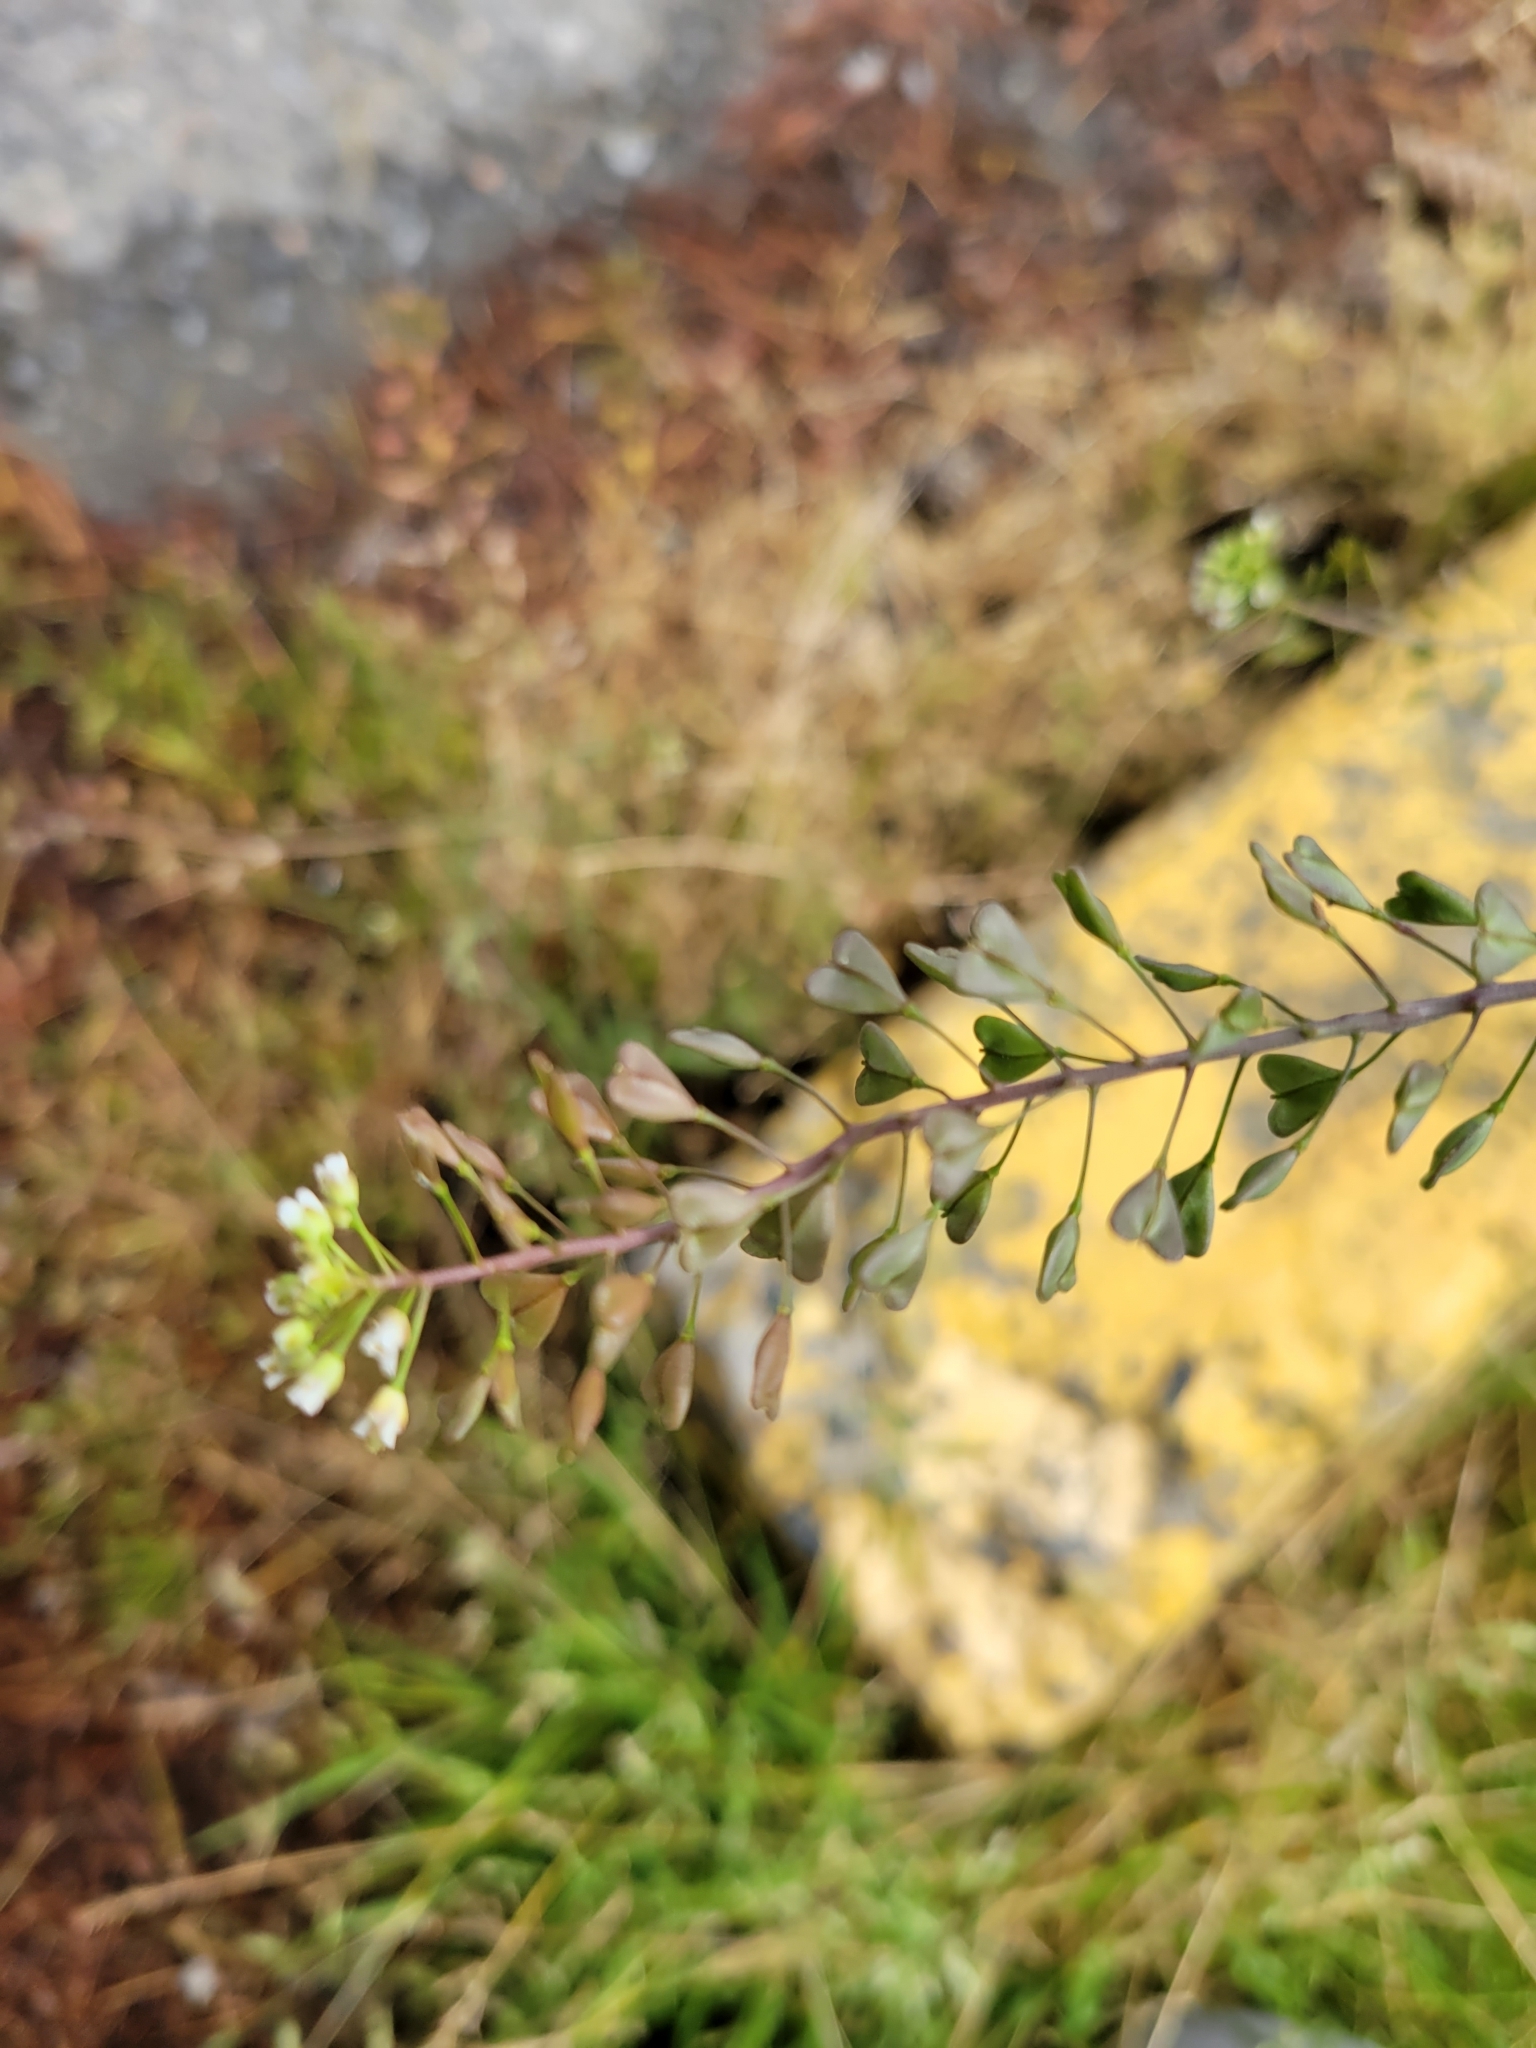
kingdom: Plantae
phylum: Tracheophyta
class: Magnoliopsida
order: Brassicales
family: Brassicaceae
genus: Capsella
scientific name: Capsella bursa-pastoris
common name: Shepherd's purse
